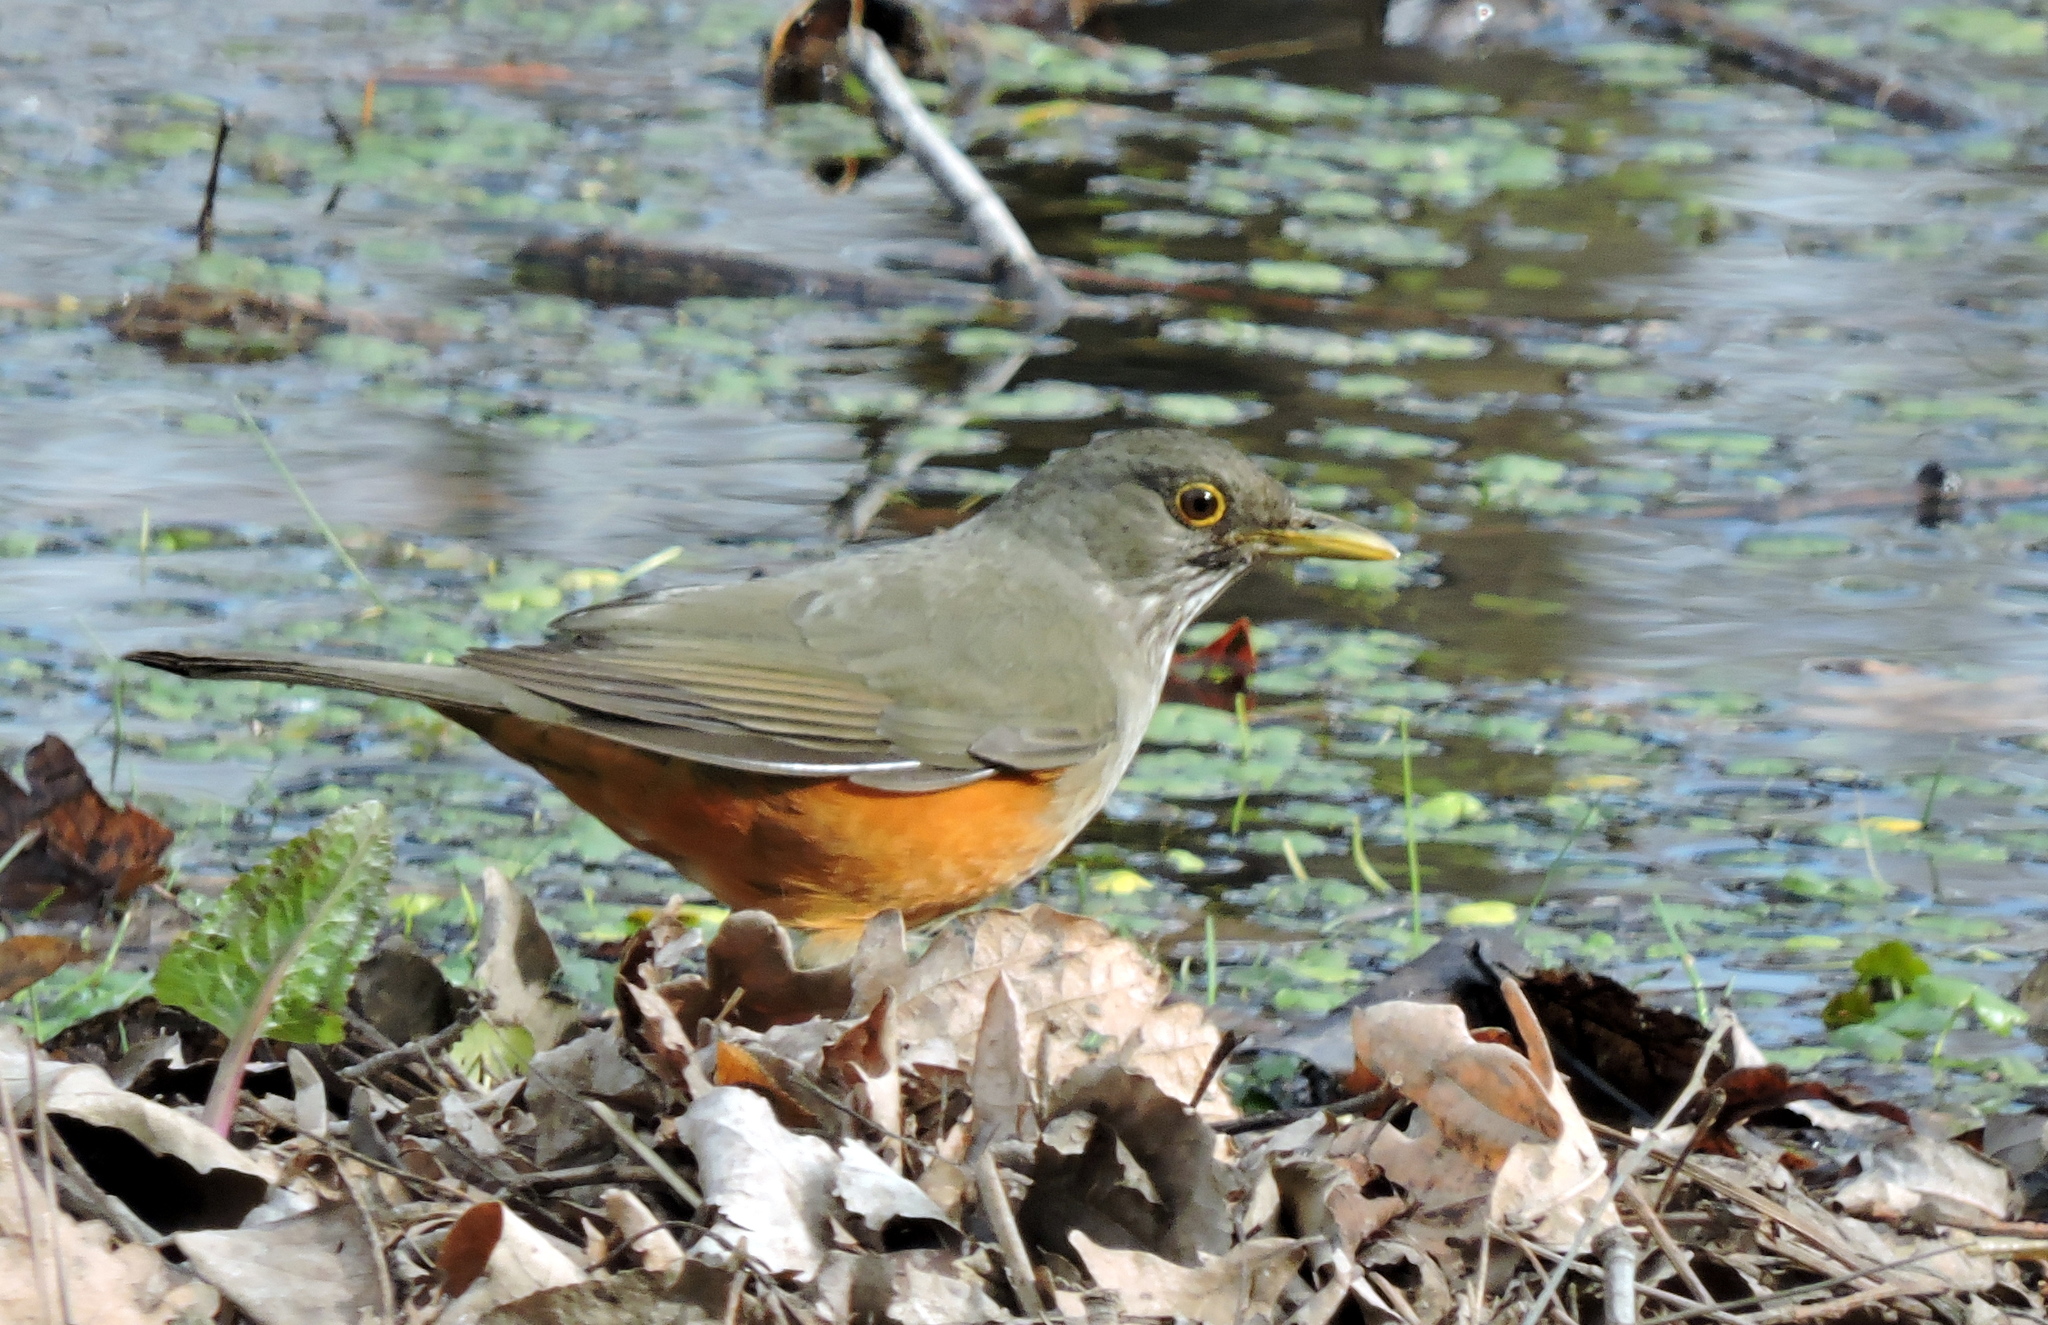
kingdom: Animalia
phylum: Chordata
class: Aves
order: Passeriformes
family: Turdidae
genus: Turdus
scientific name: Turdus rufiventris
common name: Rufous-bellied thrush
